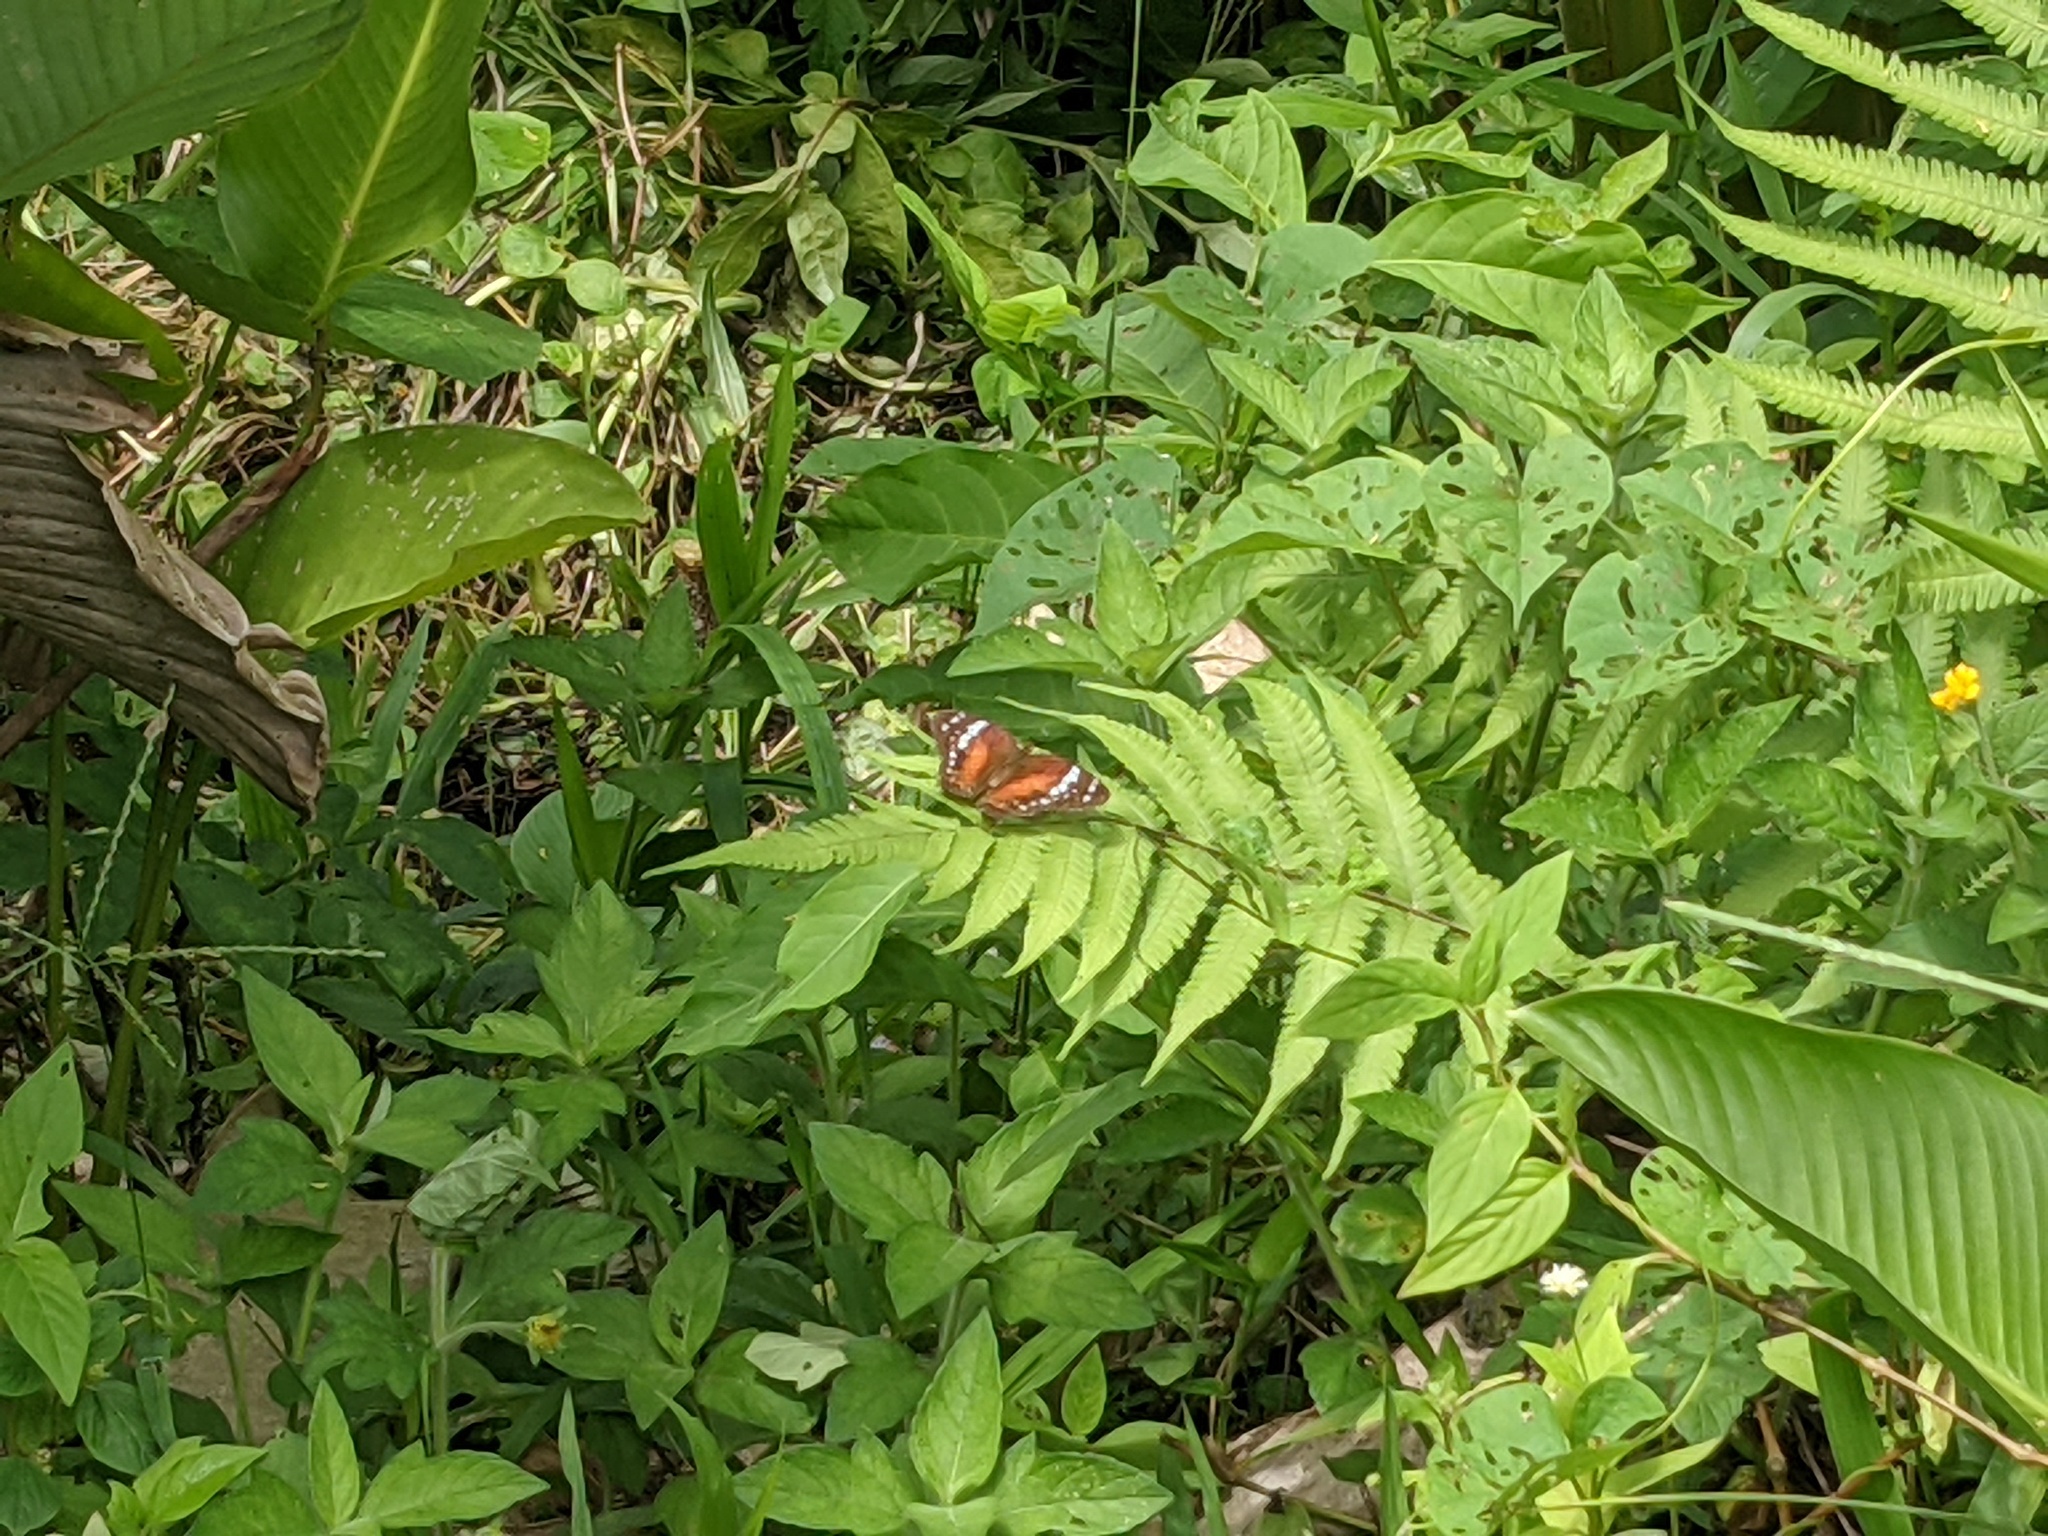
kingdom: Animalia
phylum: Arthropoda
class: Insecta
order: Lepidoptera
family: Nymphalidae
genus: Anartia
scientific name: Anartia amathea
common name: Red peacock
